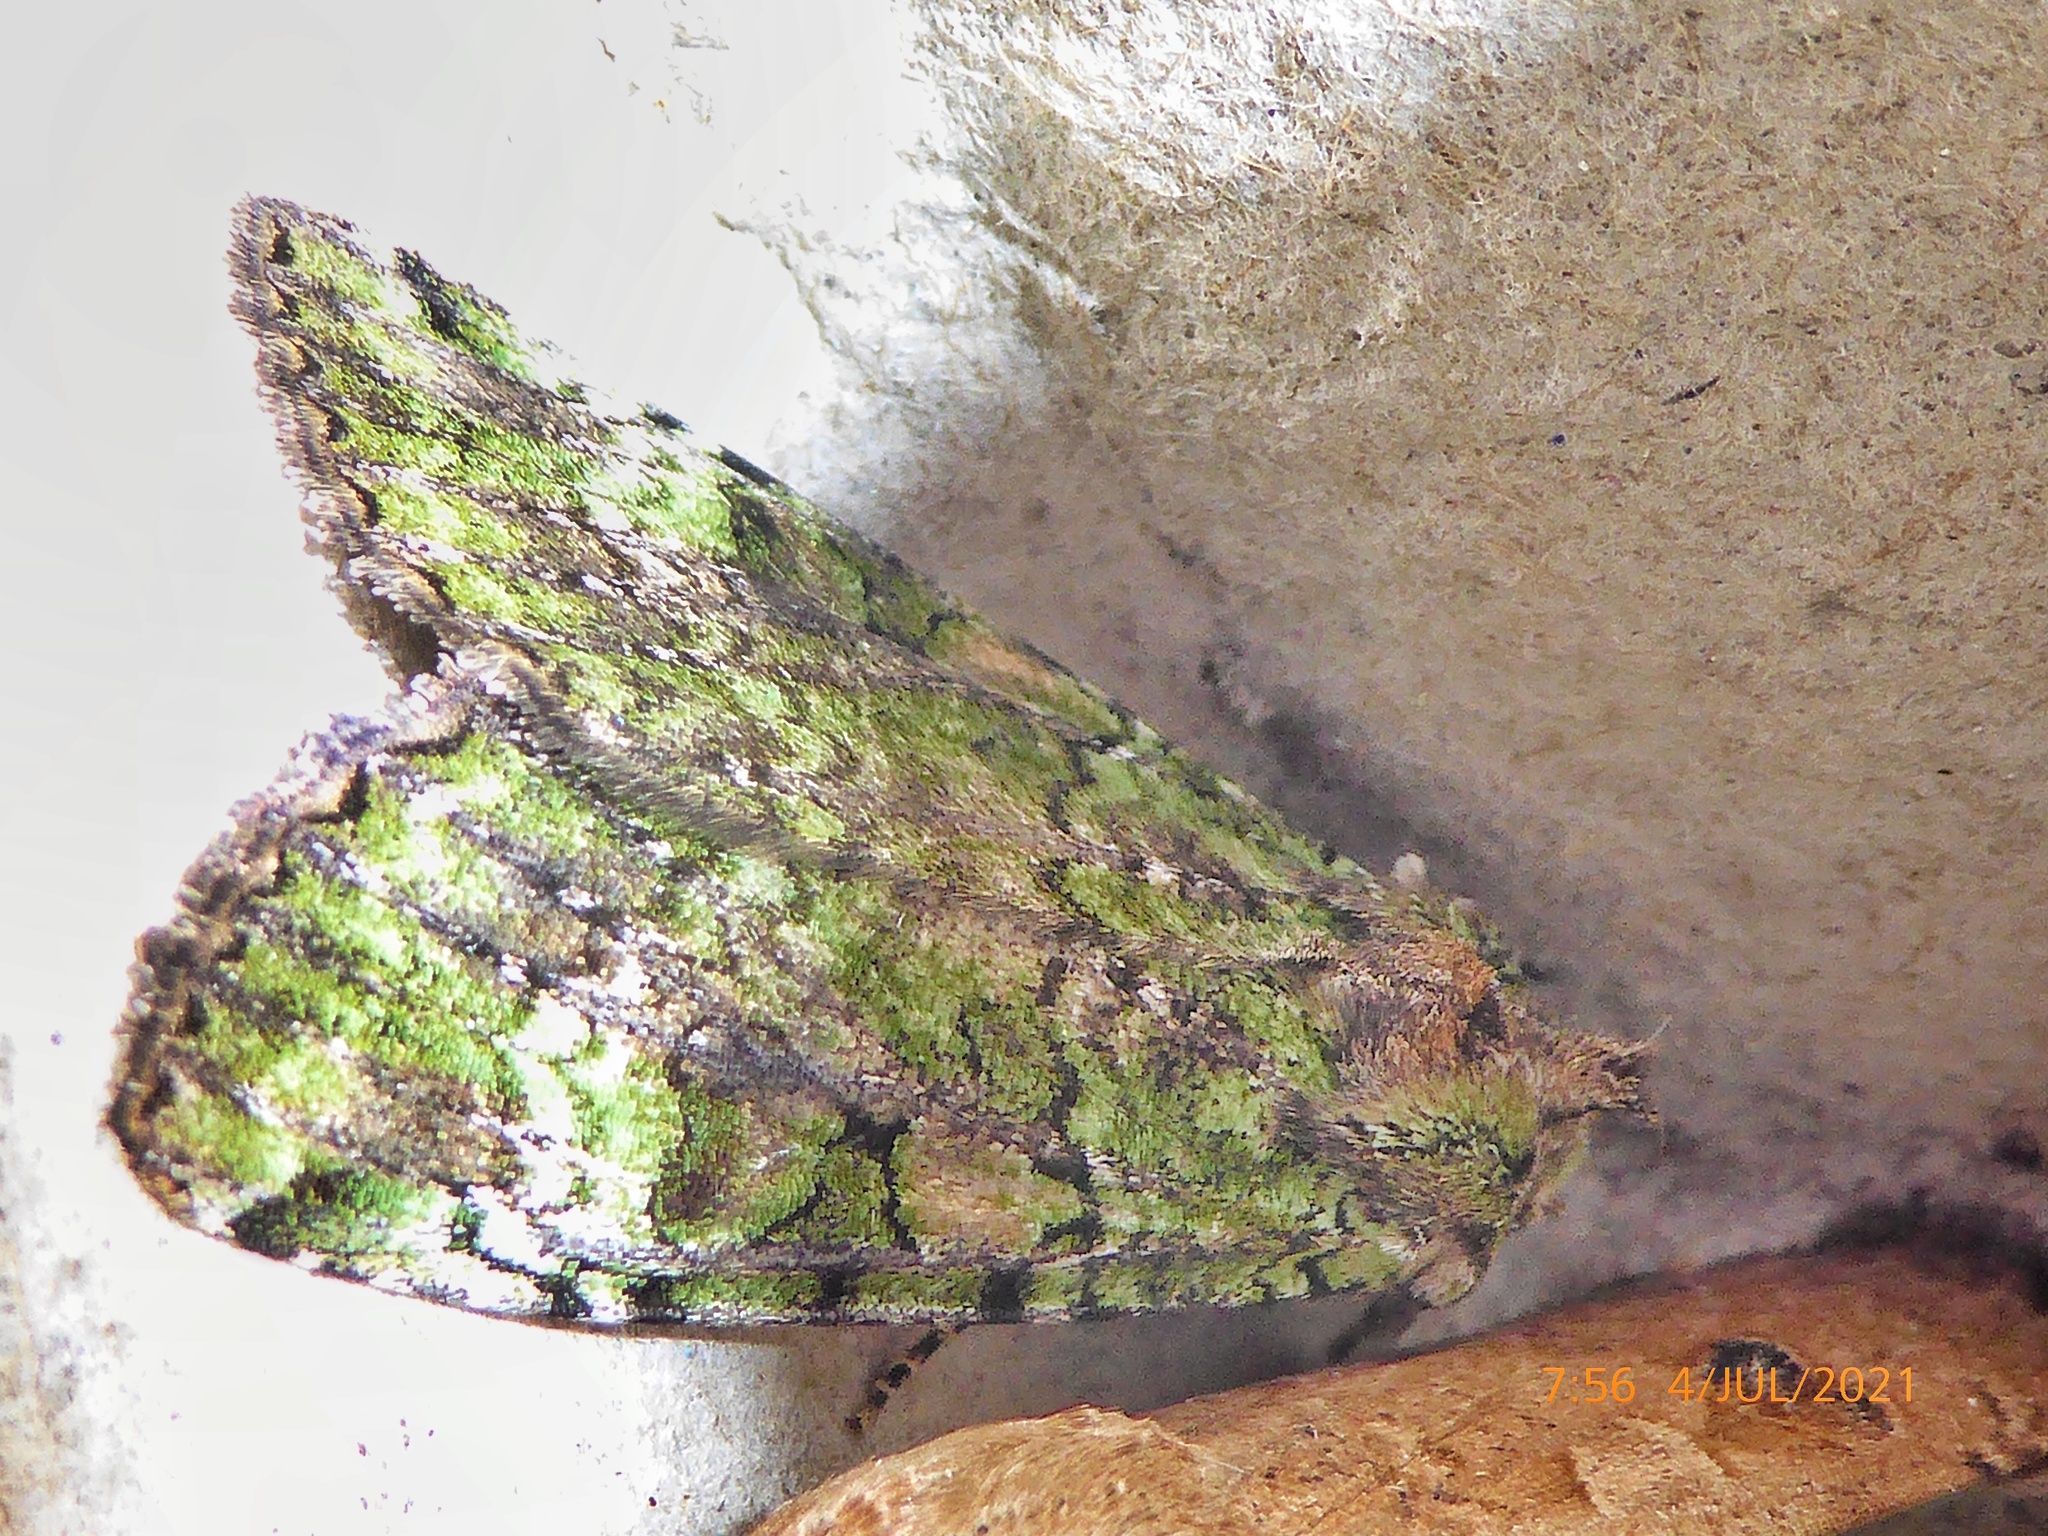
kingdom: Animalia
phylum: Arthropoda
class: Insecta
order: Lepidoptera
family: Noctuidae
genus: Anaplectoides
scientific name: Anaplectoides prasina
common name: Green arches
